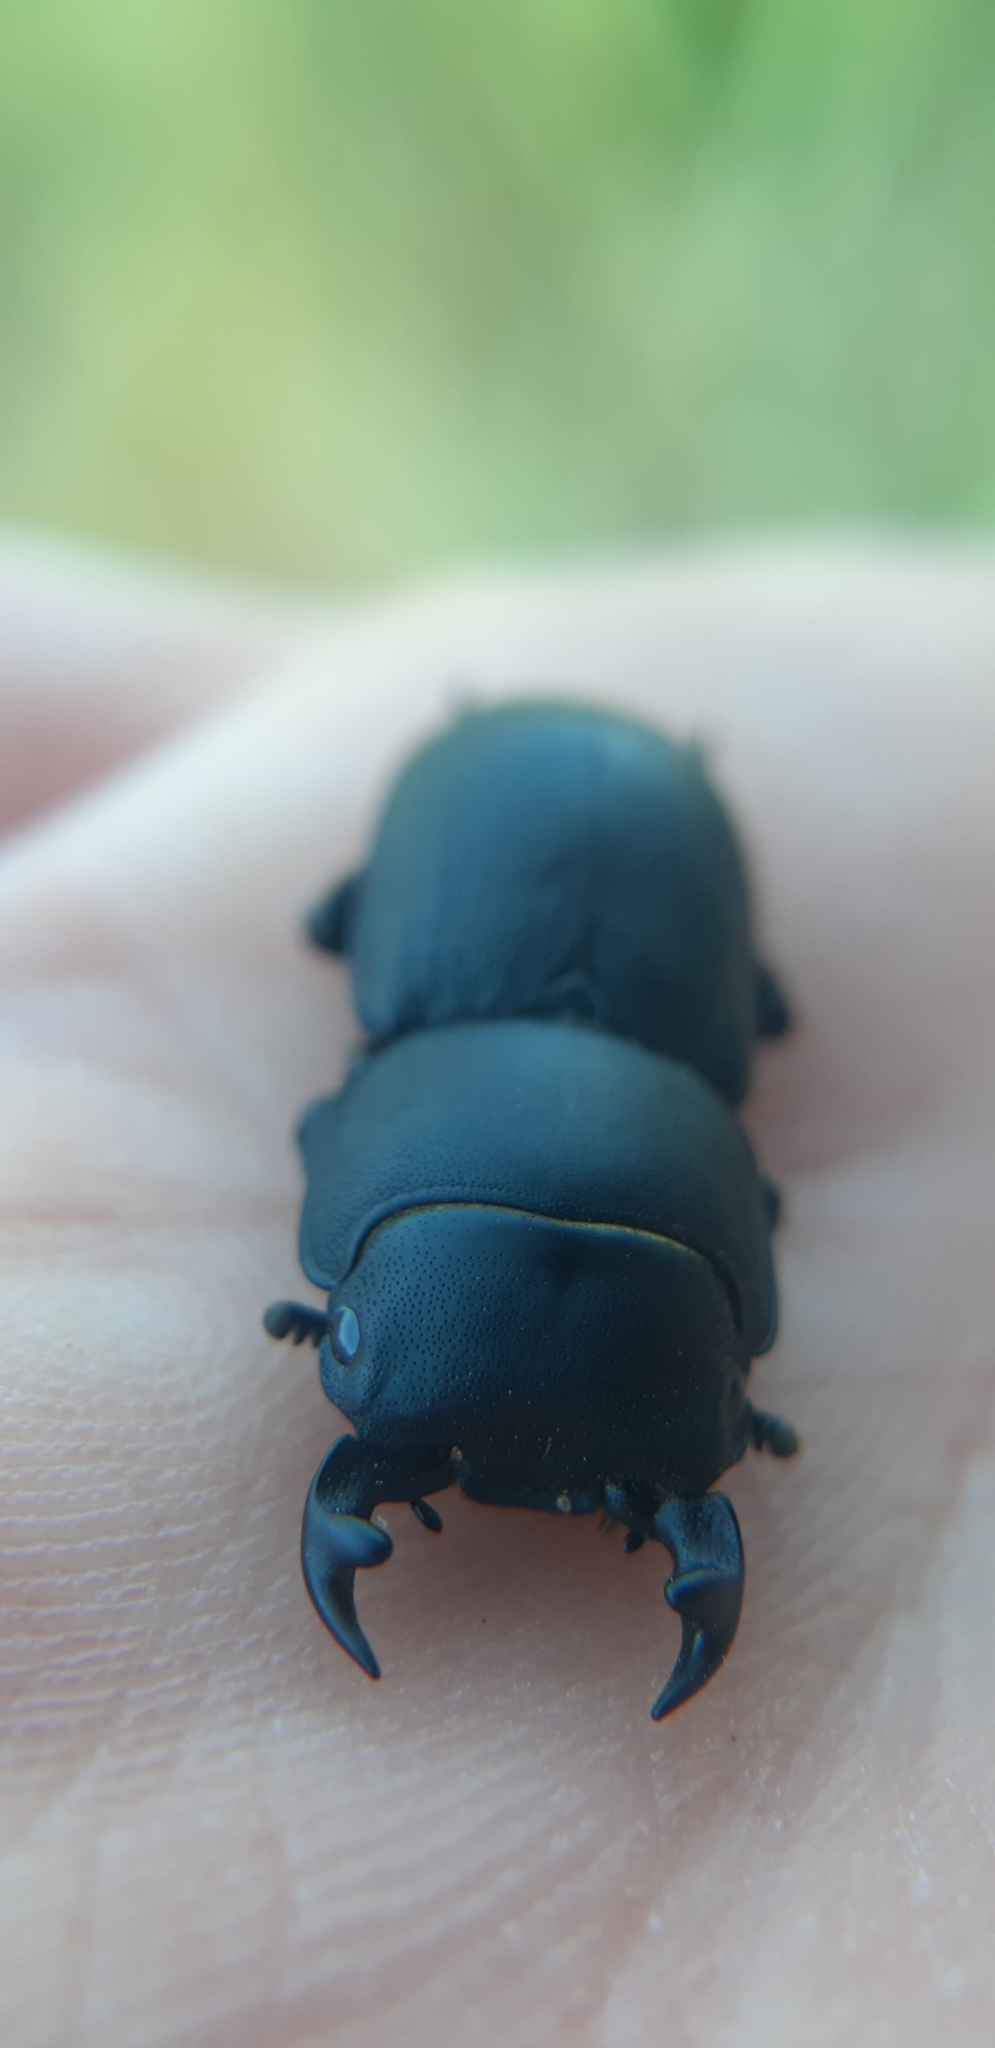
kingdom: Animalia
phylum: Arthropoda
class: Insecta
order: Coleoptera
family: Lucanidae
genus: Dorcus
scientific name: Dorcus parallelipipedus
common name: Lesser stag beetle
